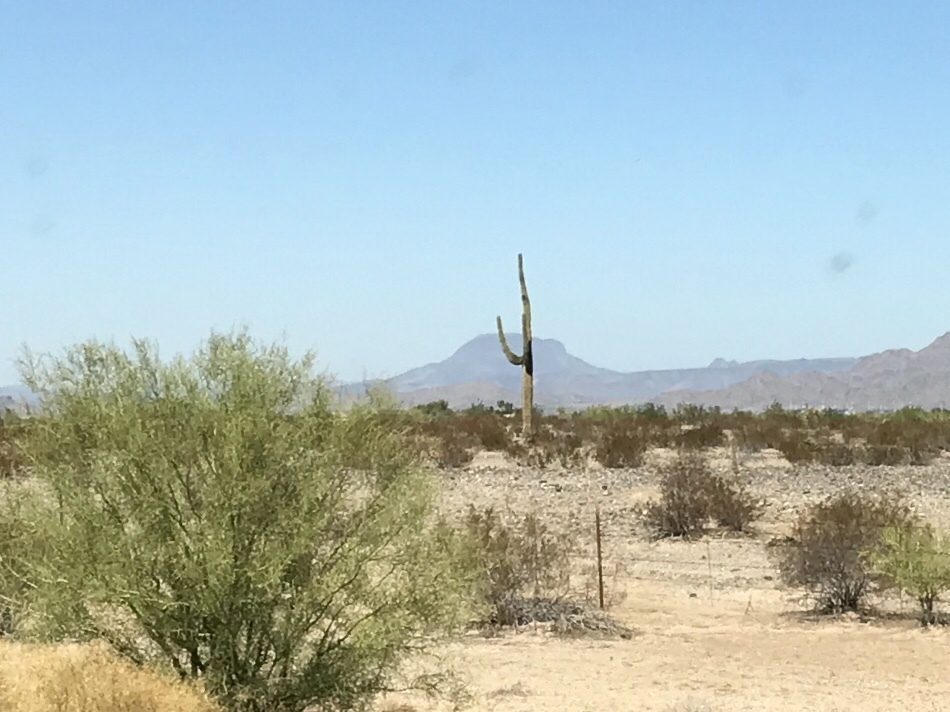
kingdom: Plantae
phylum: Tracheophyta
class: Magnoliopsida
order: Caryophyllales
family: Cactaceae
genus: Carnegiea
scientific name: Carnegiea gigantea
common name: Saguaro
